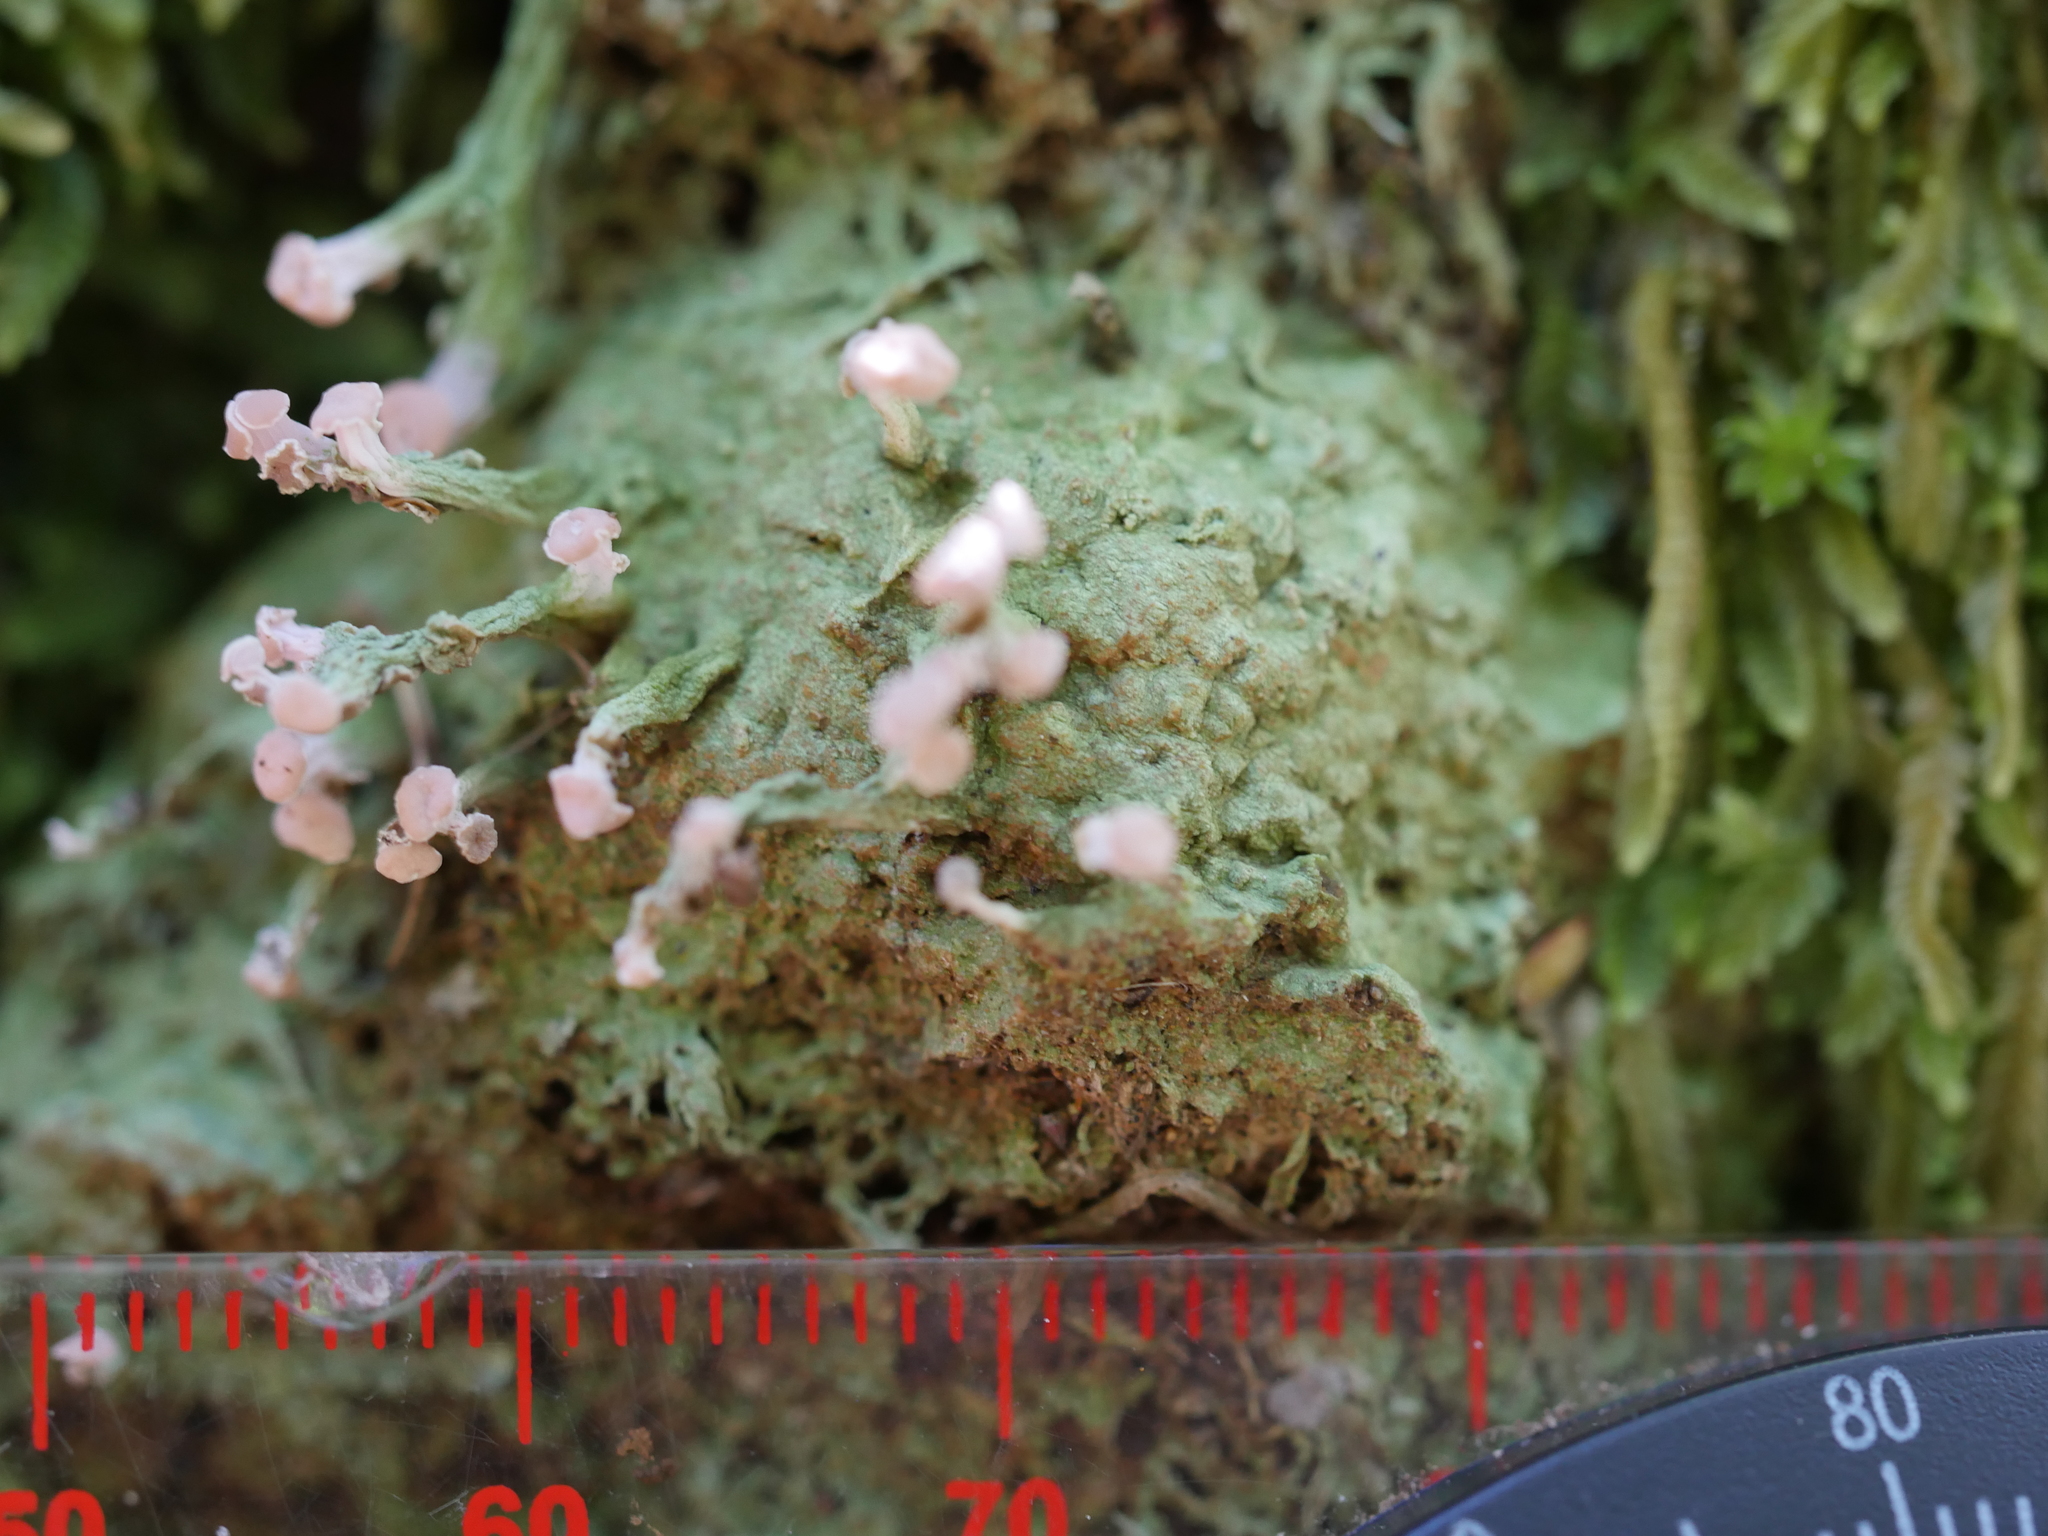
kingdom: Fungi
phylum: Ascomycota
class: Lecanoromycetes
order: Baeomycetales
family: Baeomycetaceae
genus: Baeomyces
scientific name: Baeomyces heteromorphus
